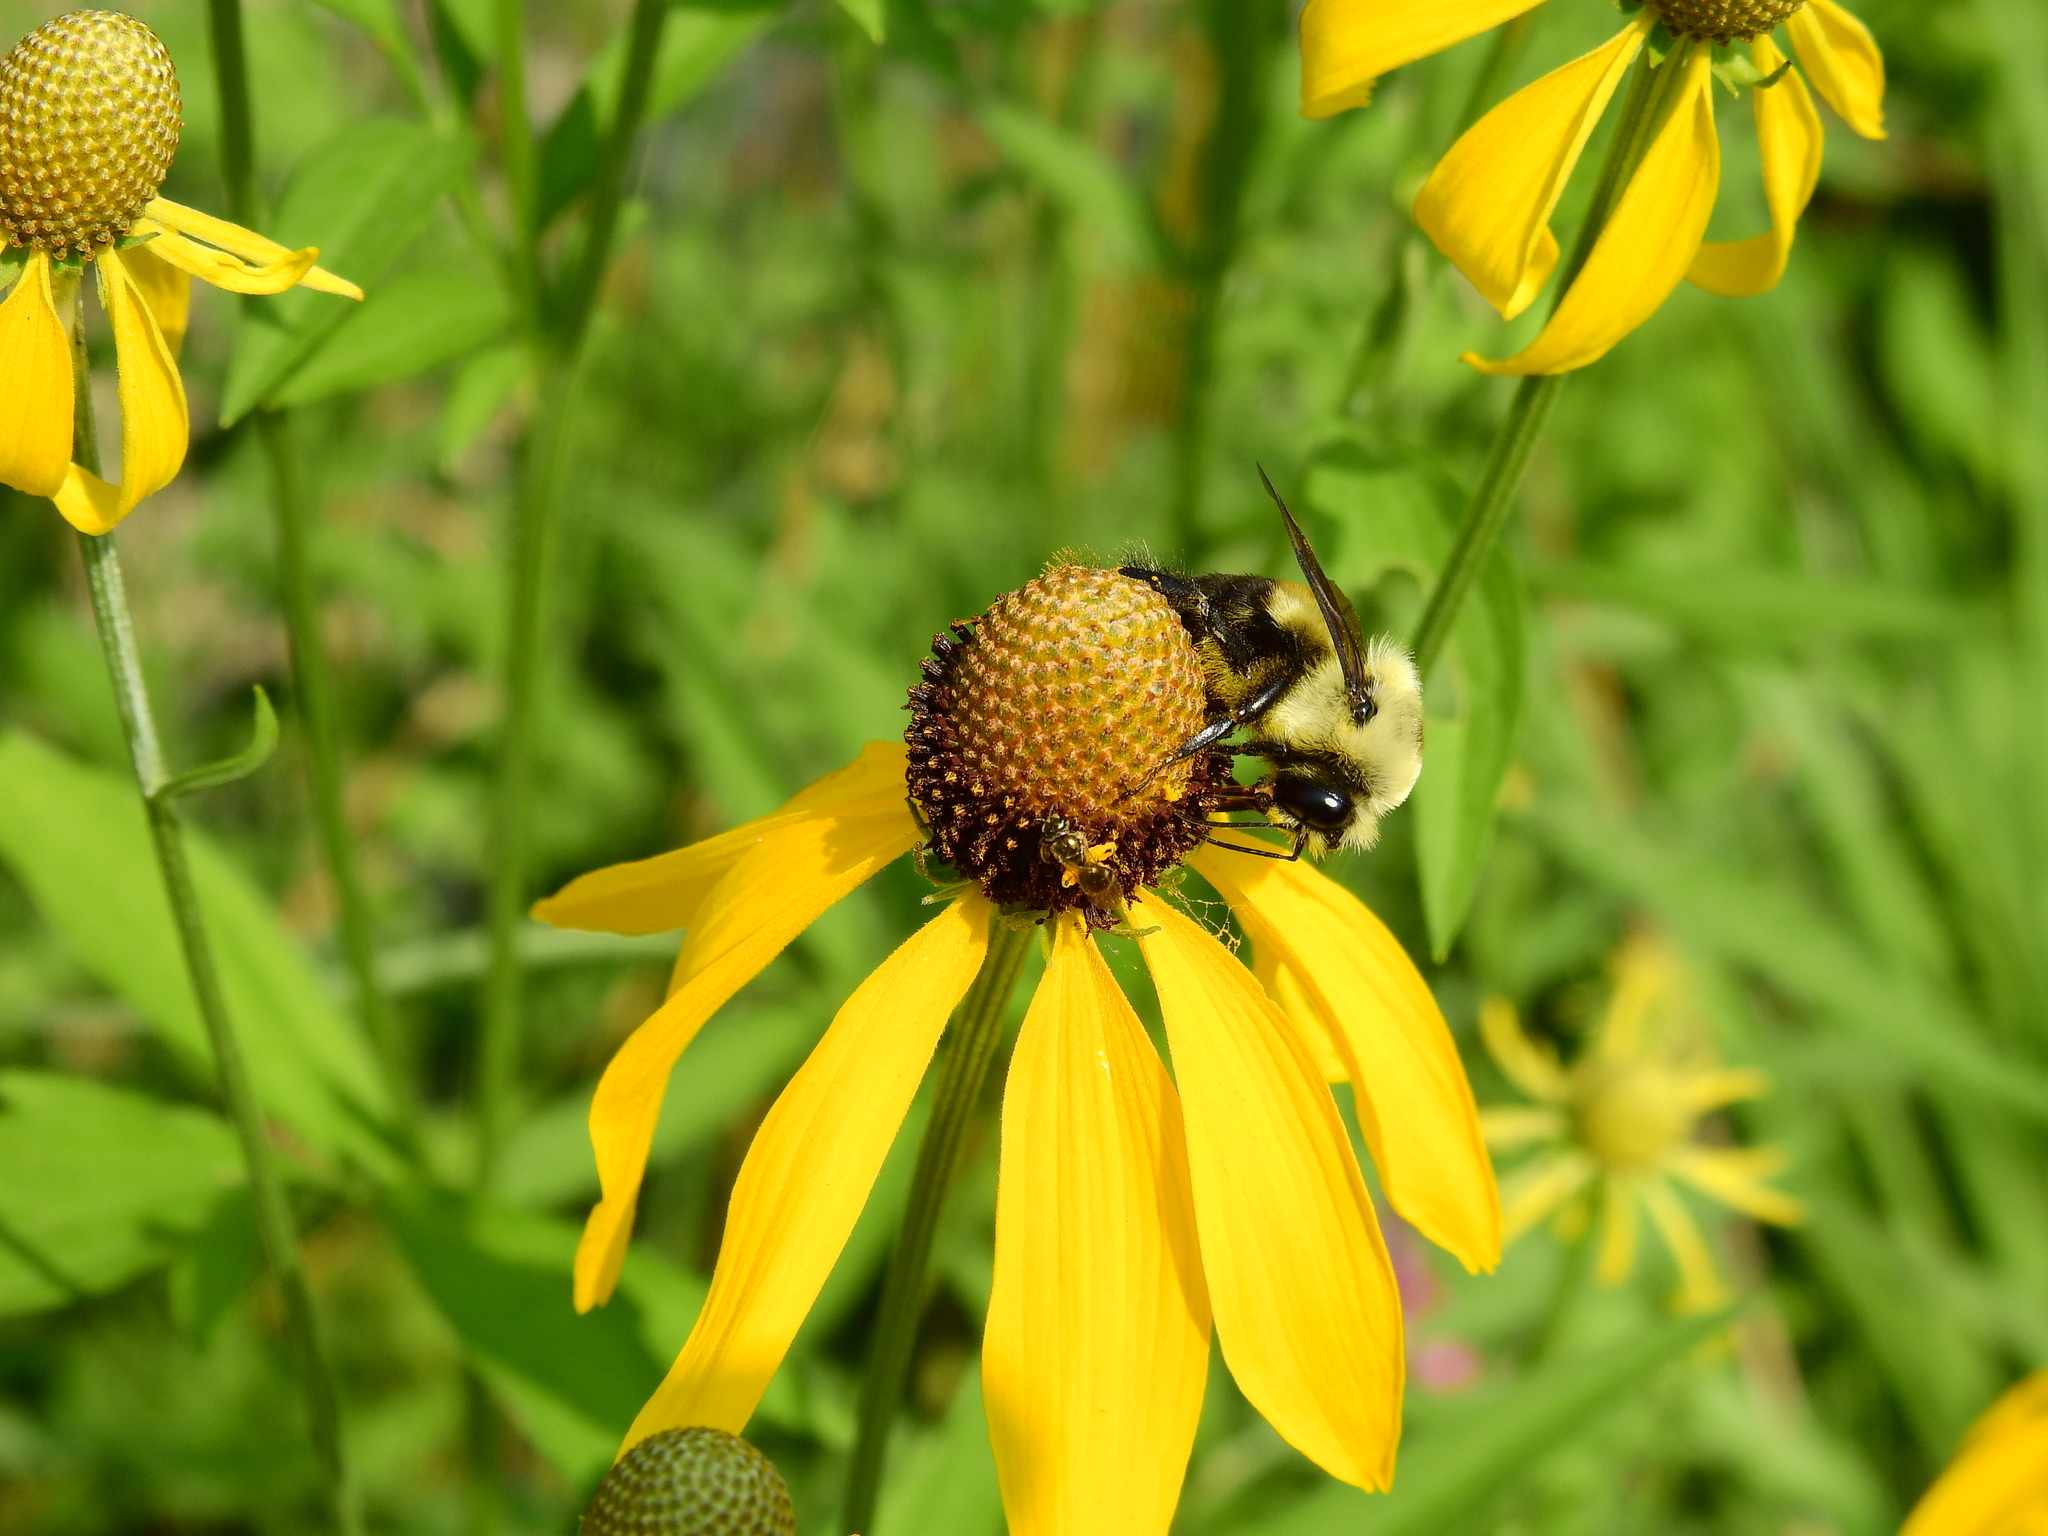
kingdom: Animalia
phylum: Arthropoda
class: Insecta
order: Hymenoptera
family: Apidae
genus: Bombus
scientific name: Bombus griseocollis
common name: Brown-belted bumble bee
